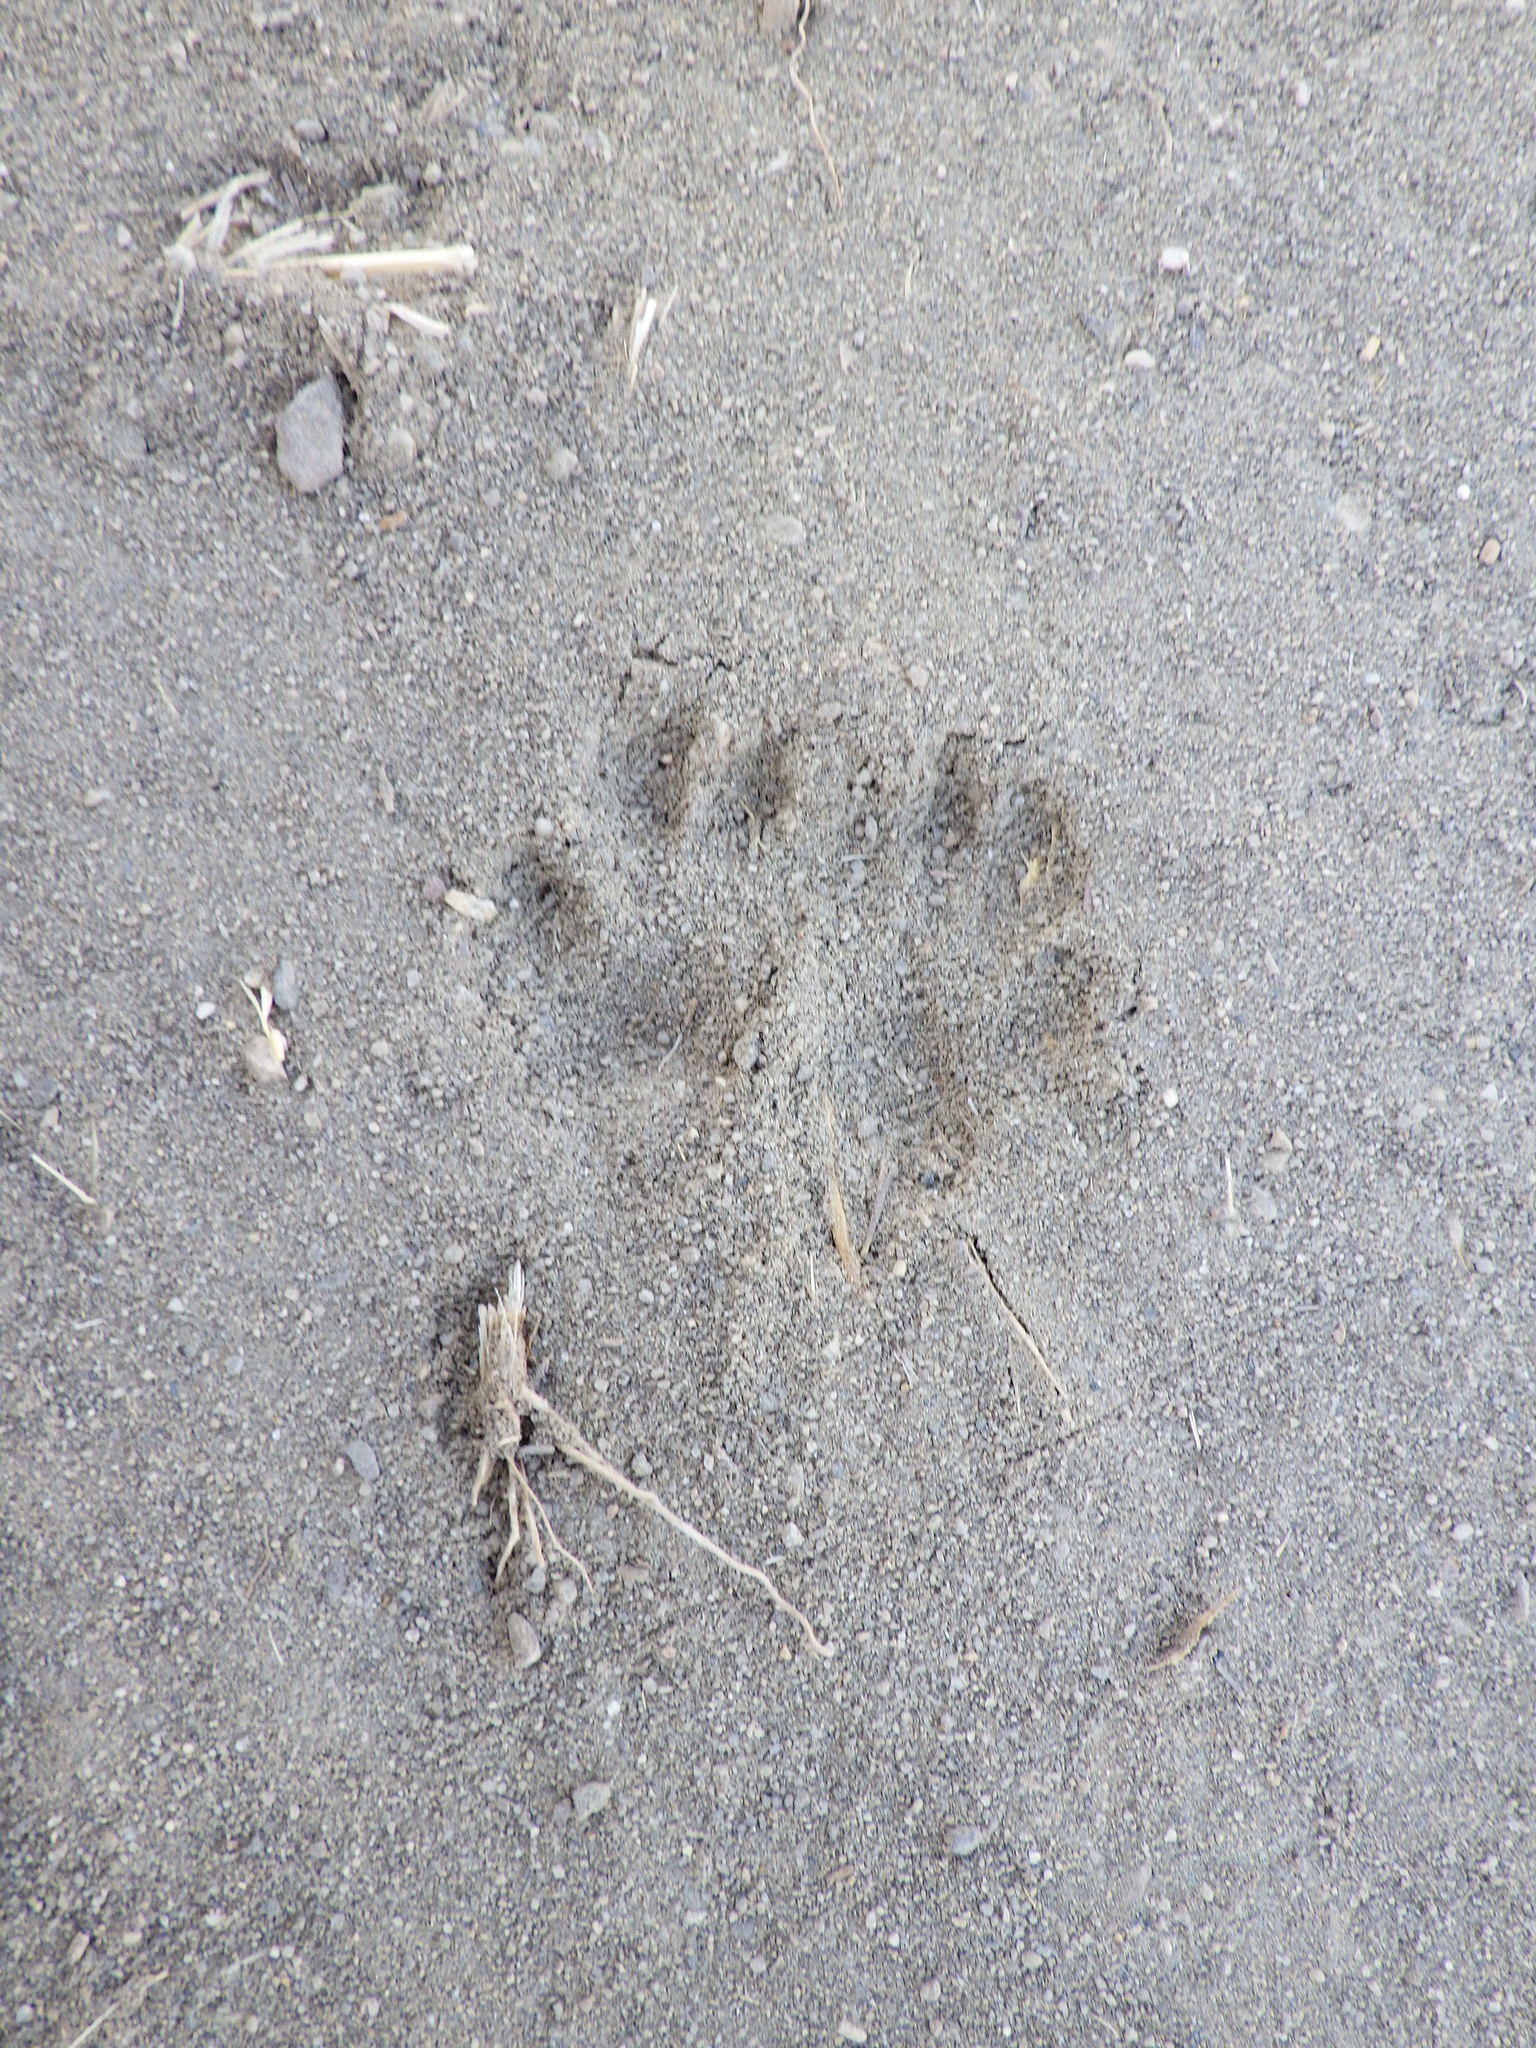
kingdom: Animalia
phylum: Chordata
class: Mammalia
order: Rodentia
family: Heteromyidae
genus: Dipodomys
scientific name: Dipodomys agilis
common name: Agile kangaroo rat
